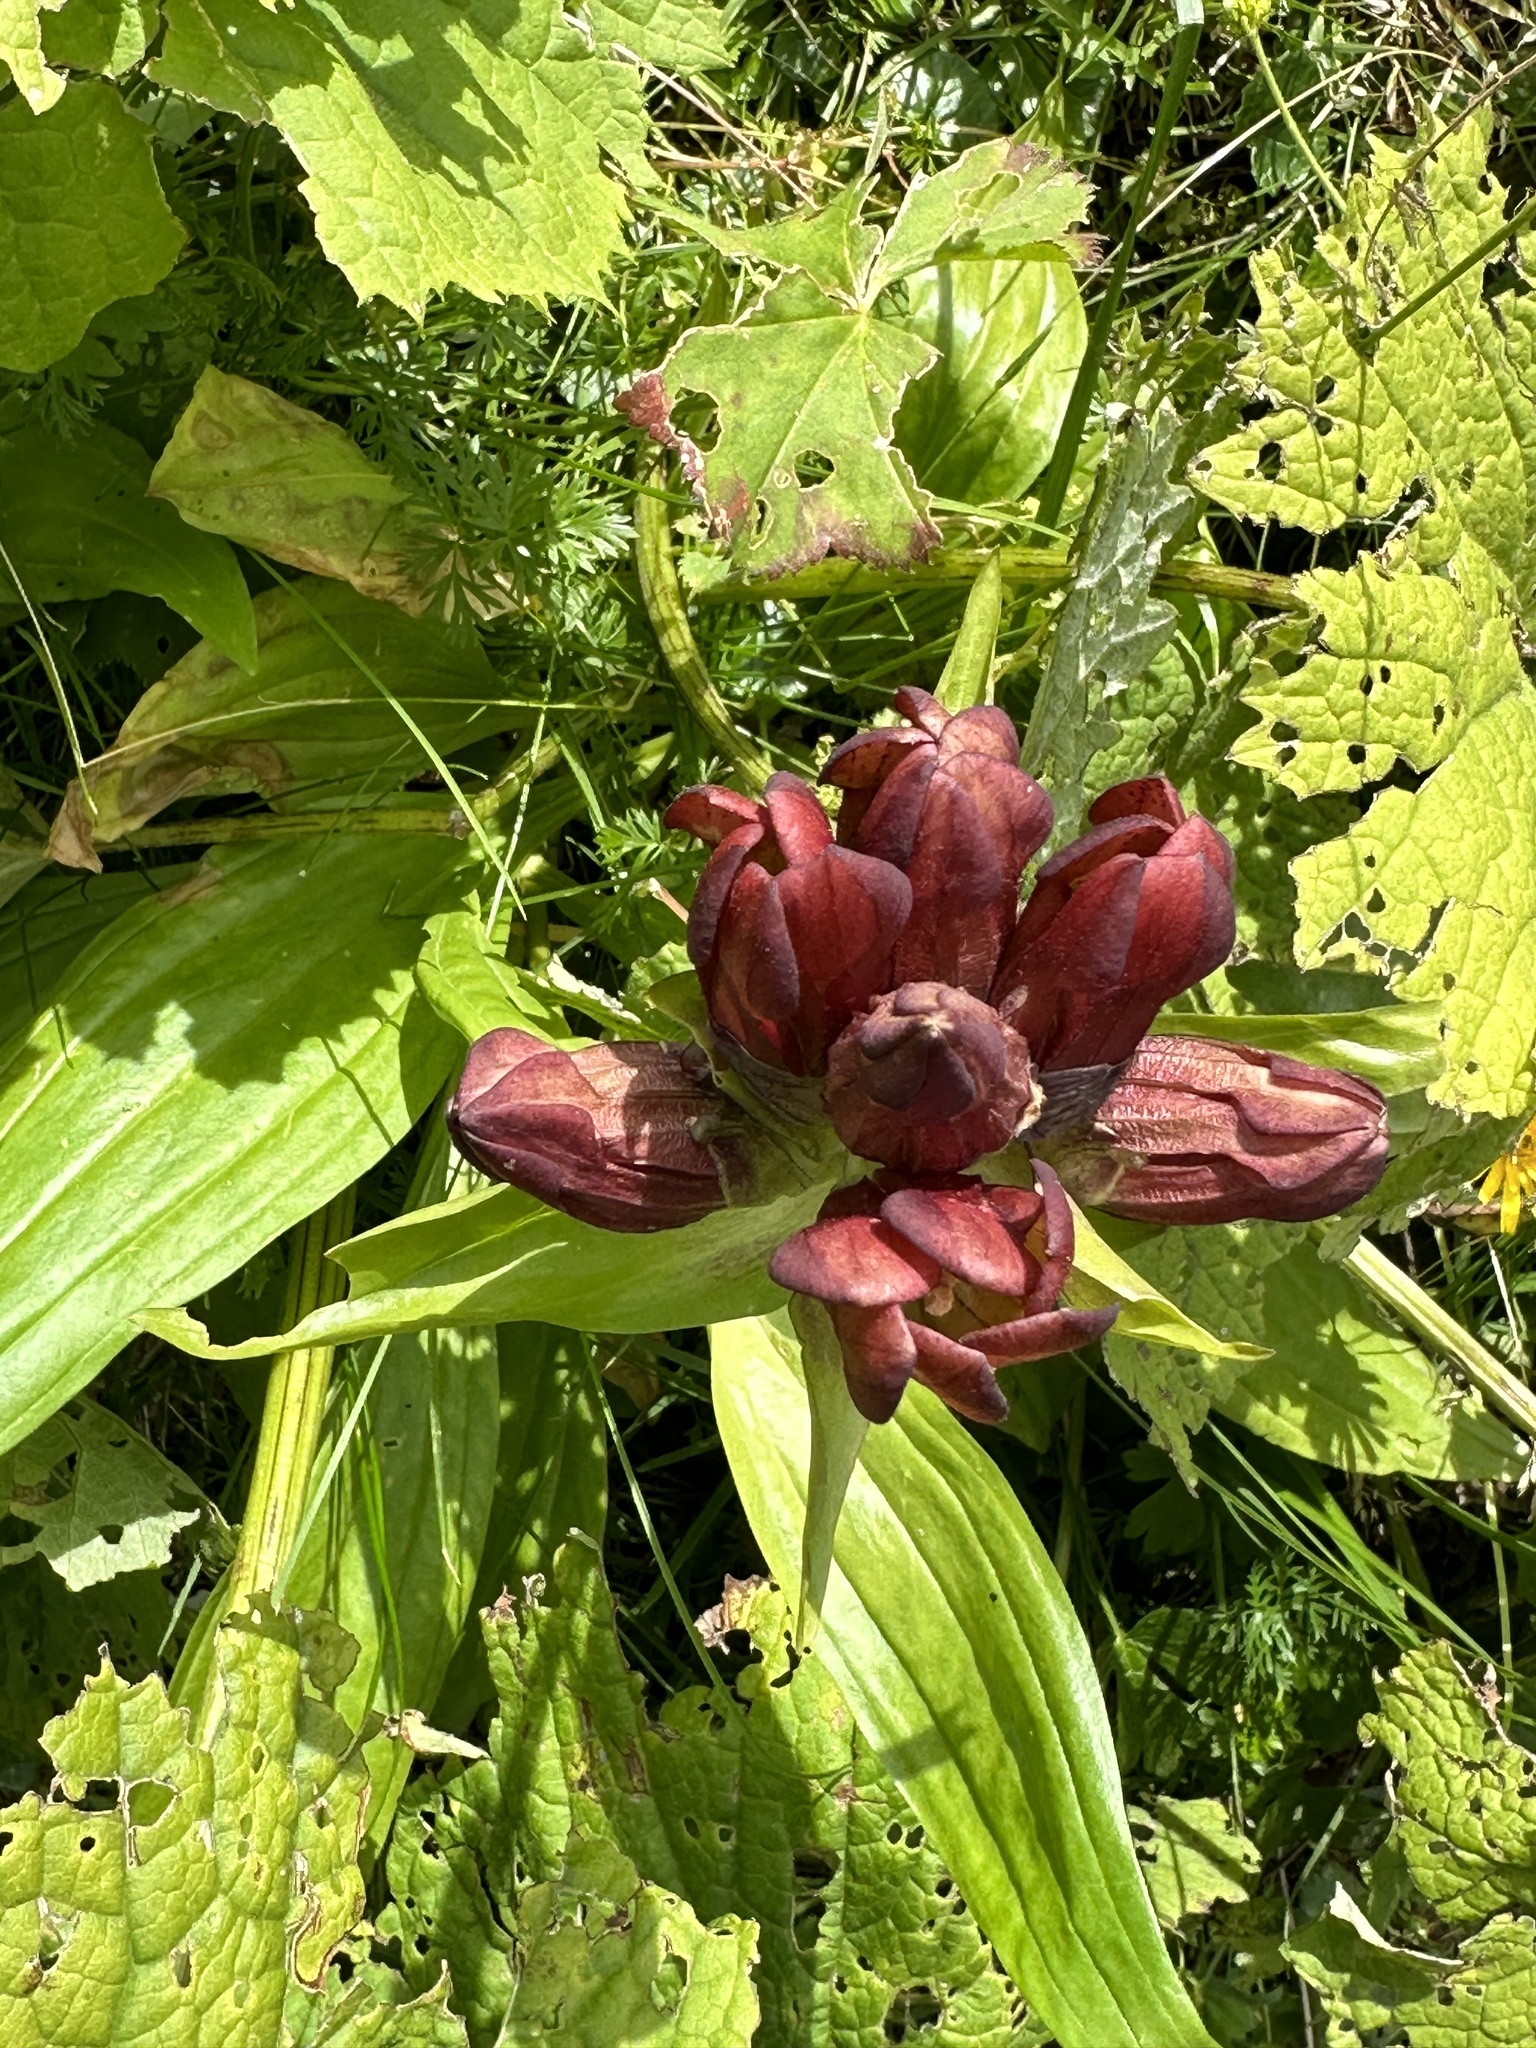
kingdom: Plantae
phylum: Tracheophyta
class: Magnoliopsida
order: Gentianales
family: Gentianaceae
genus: Gentiana
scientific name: Gentiana purpurea
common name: Purple gentian
